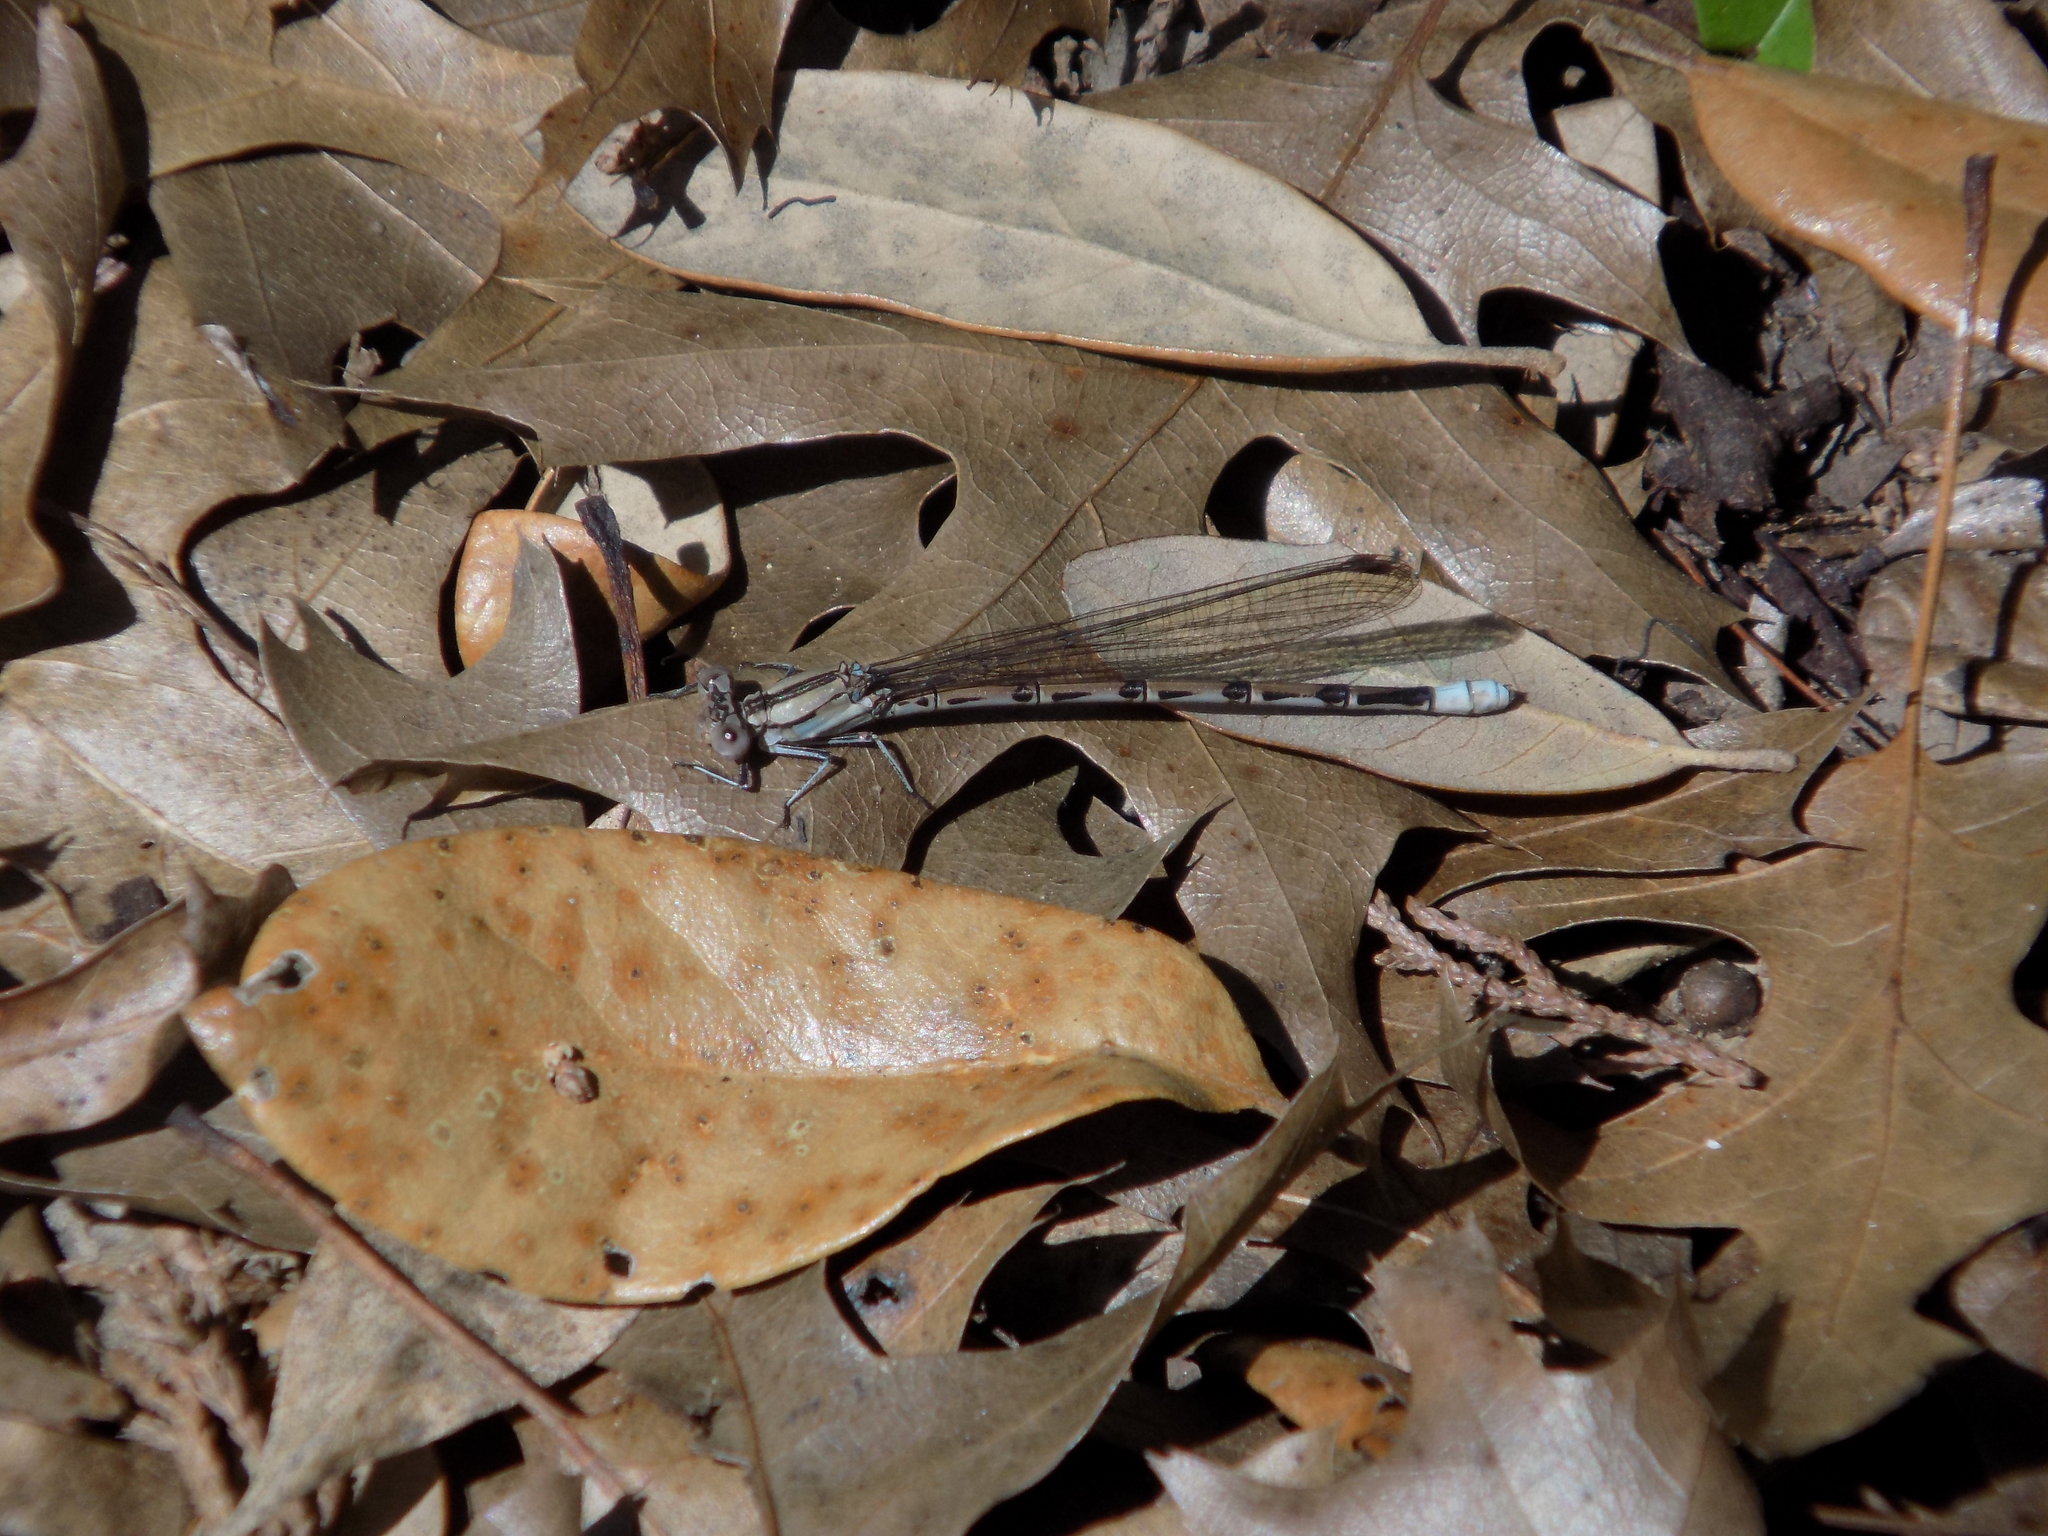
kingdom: Animalia
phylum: Arthropoda
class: Insecta
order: Odonata
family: Coenagrionidae
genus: Argia
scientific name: Argia funebris
